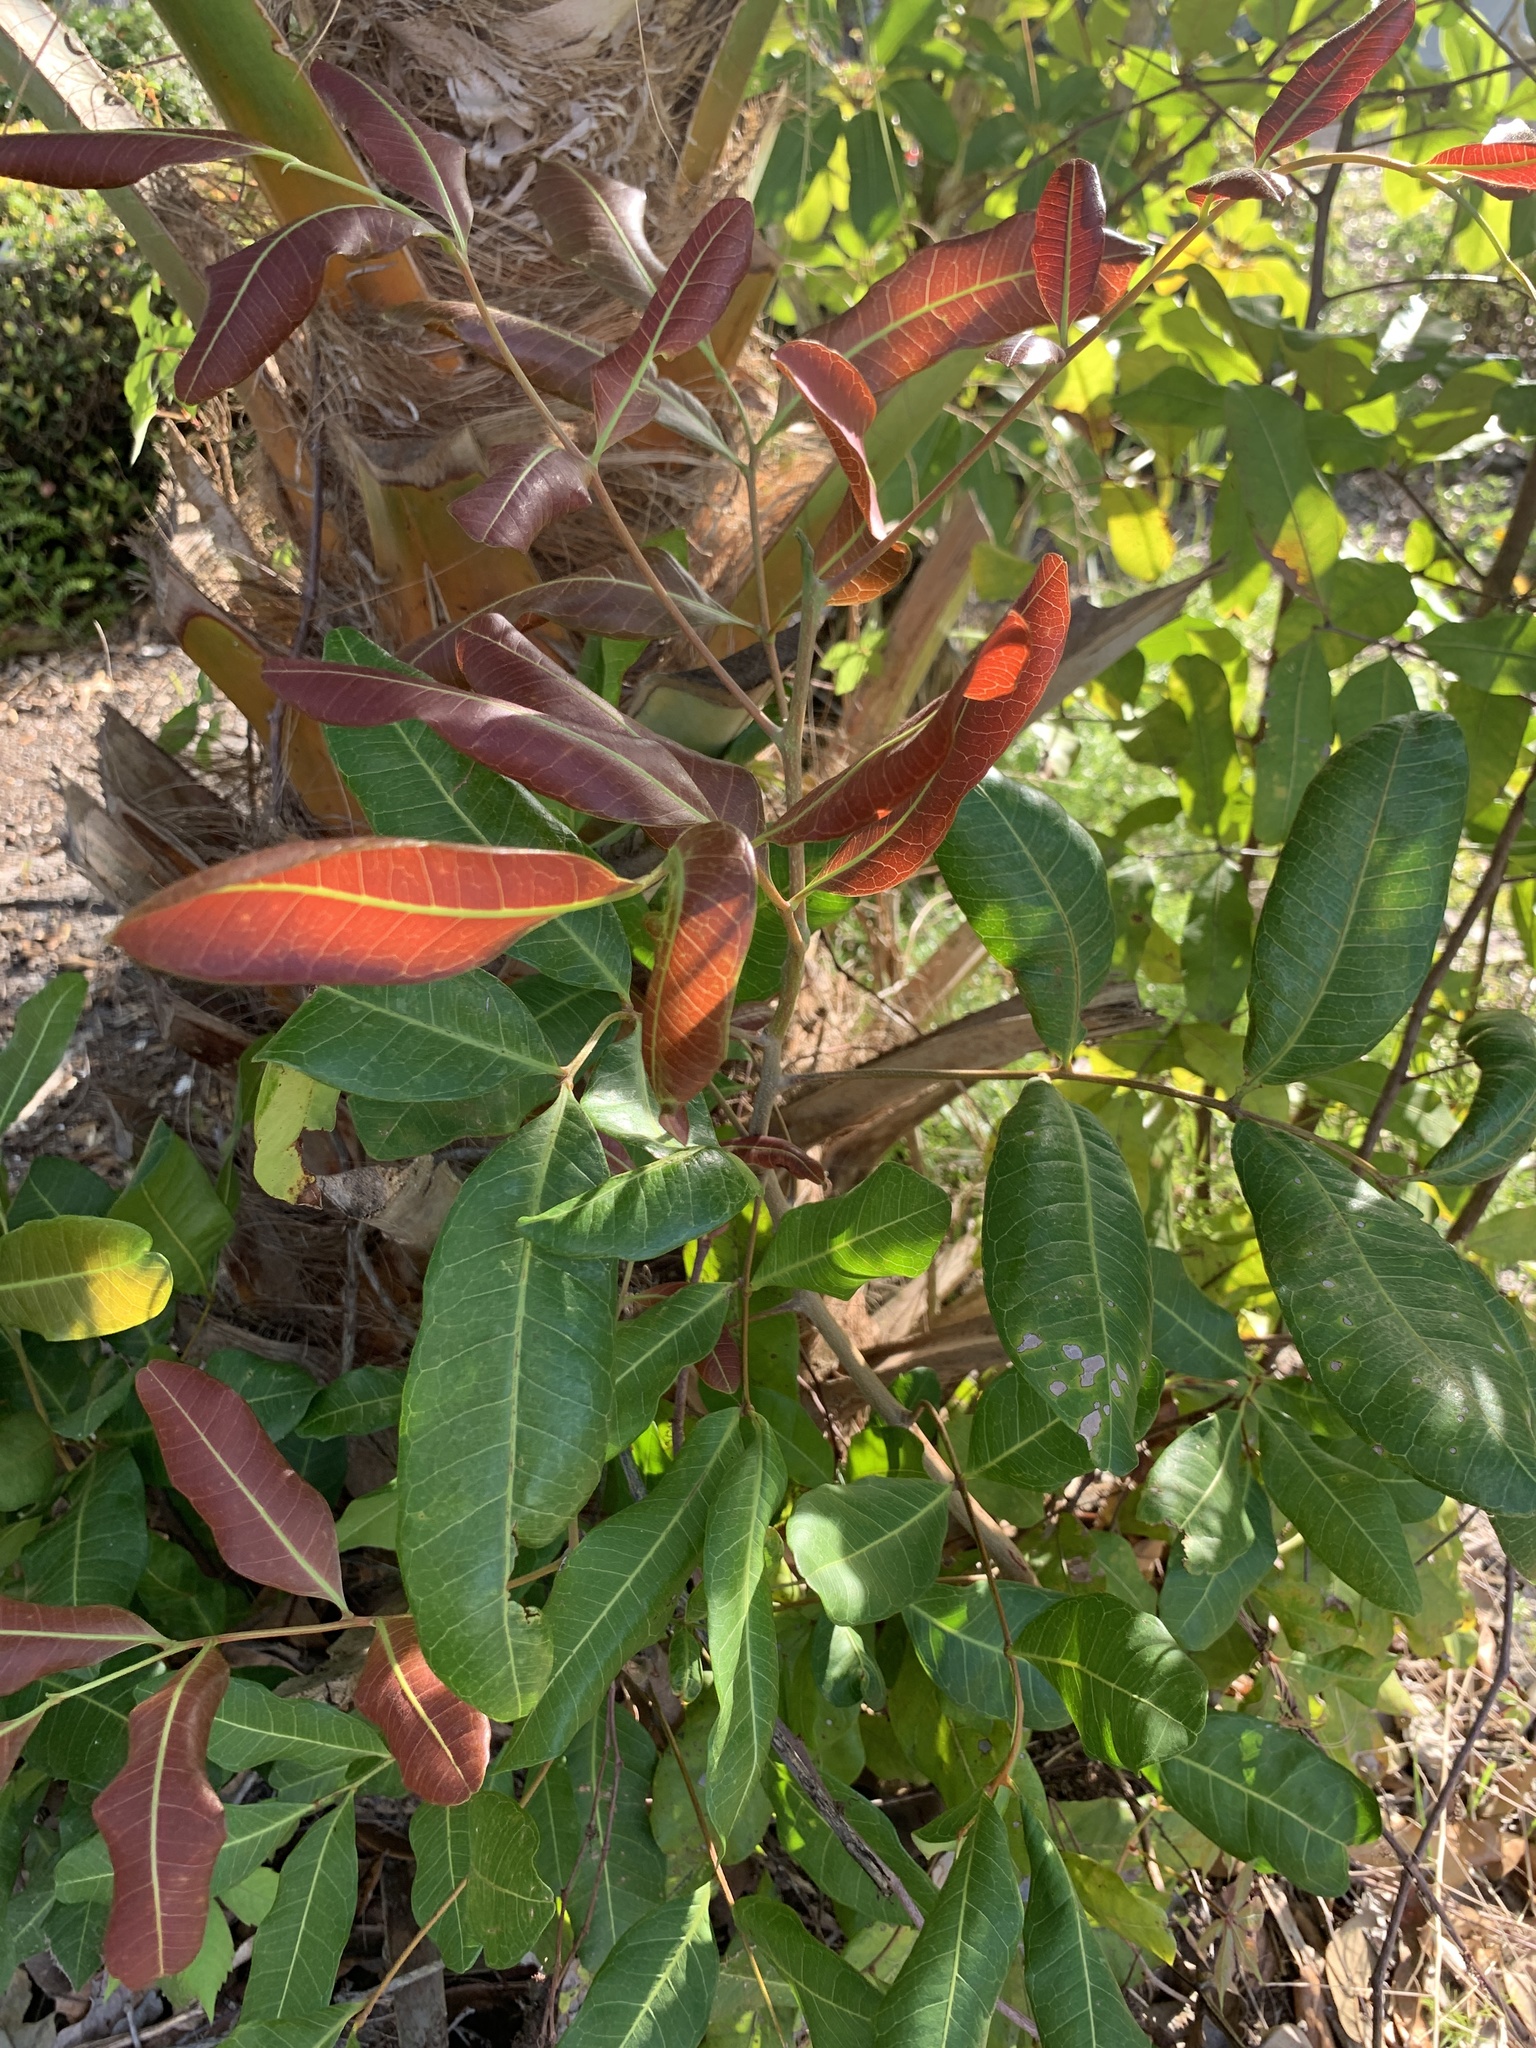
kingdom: Plantae
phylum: Tracheophyta
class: Magnoliopsida
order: Sapindales
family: Sapindaceae
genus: Cupaniopsis
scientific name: Cupaniopsis anacardioides
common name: Carrotwood
